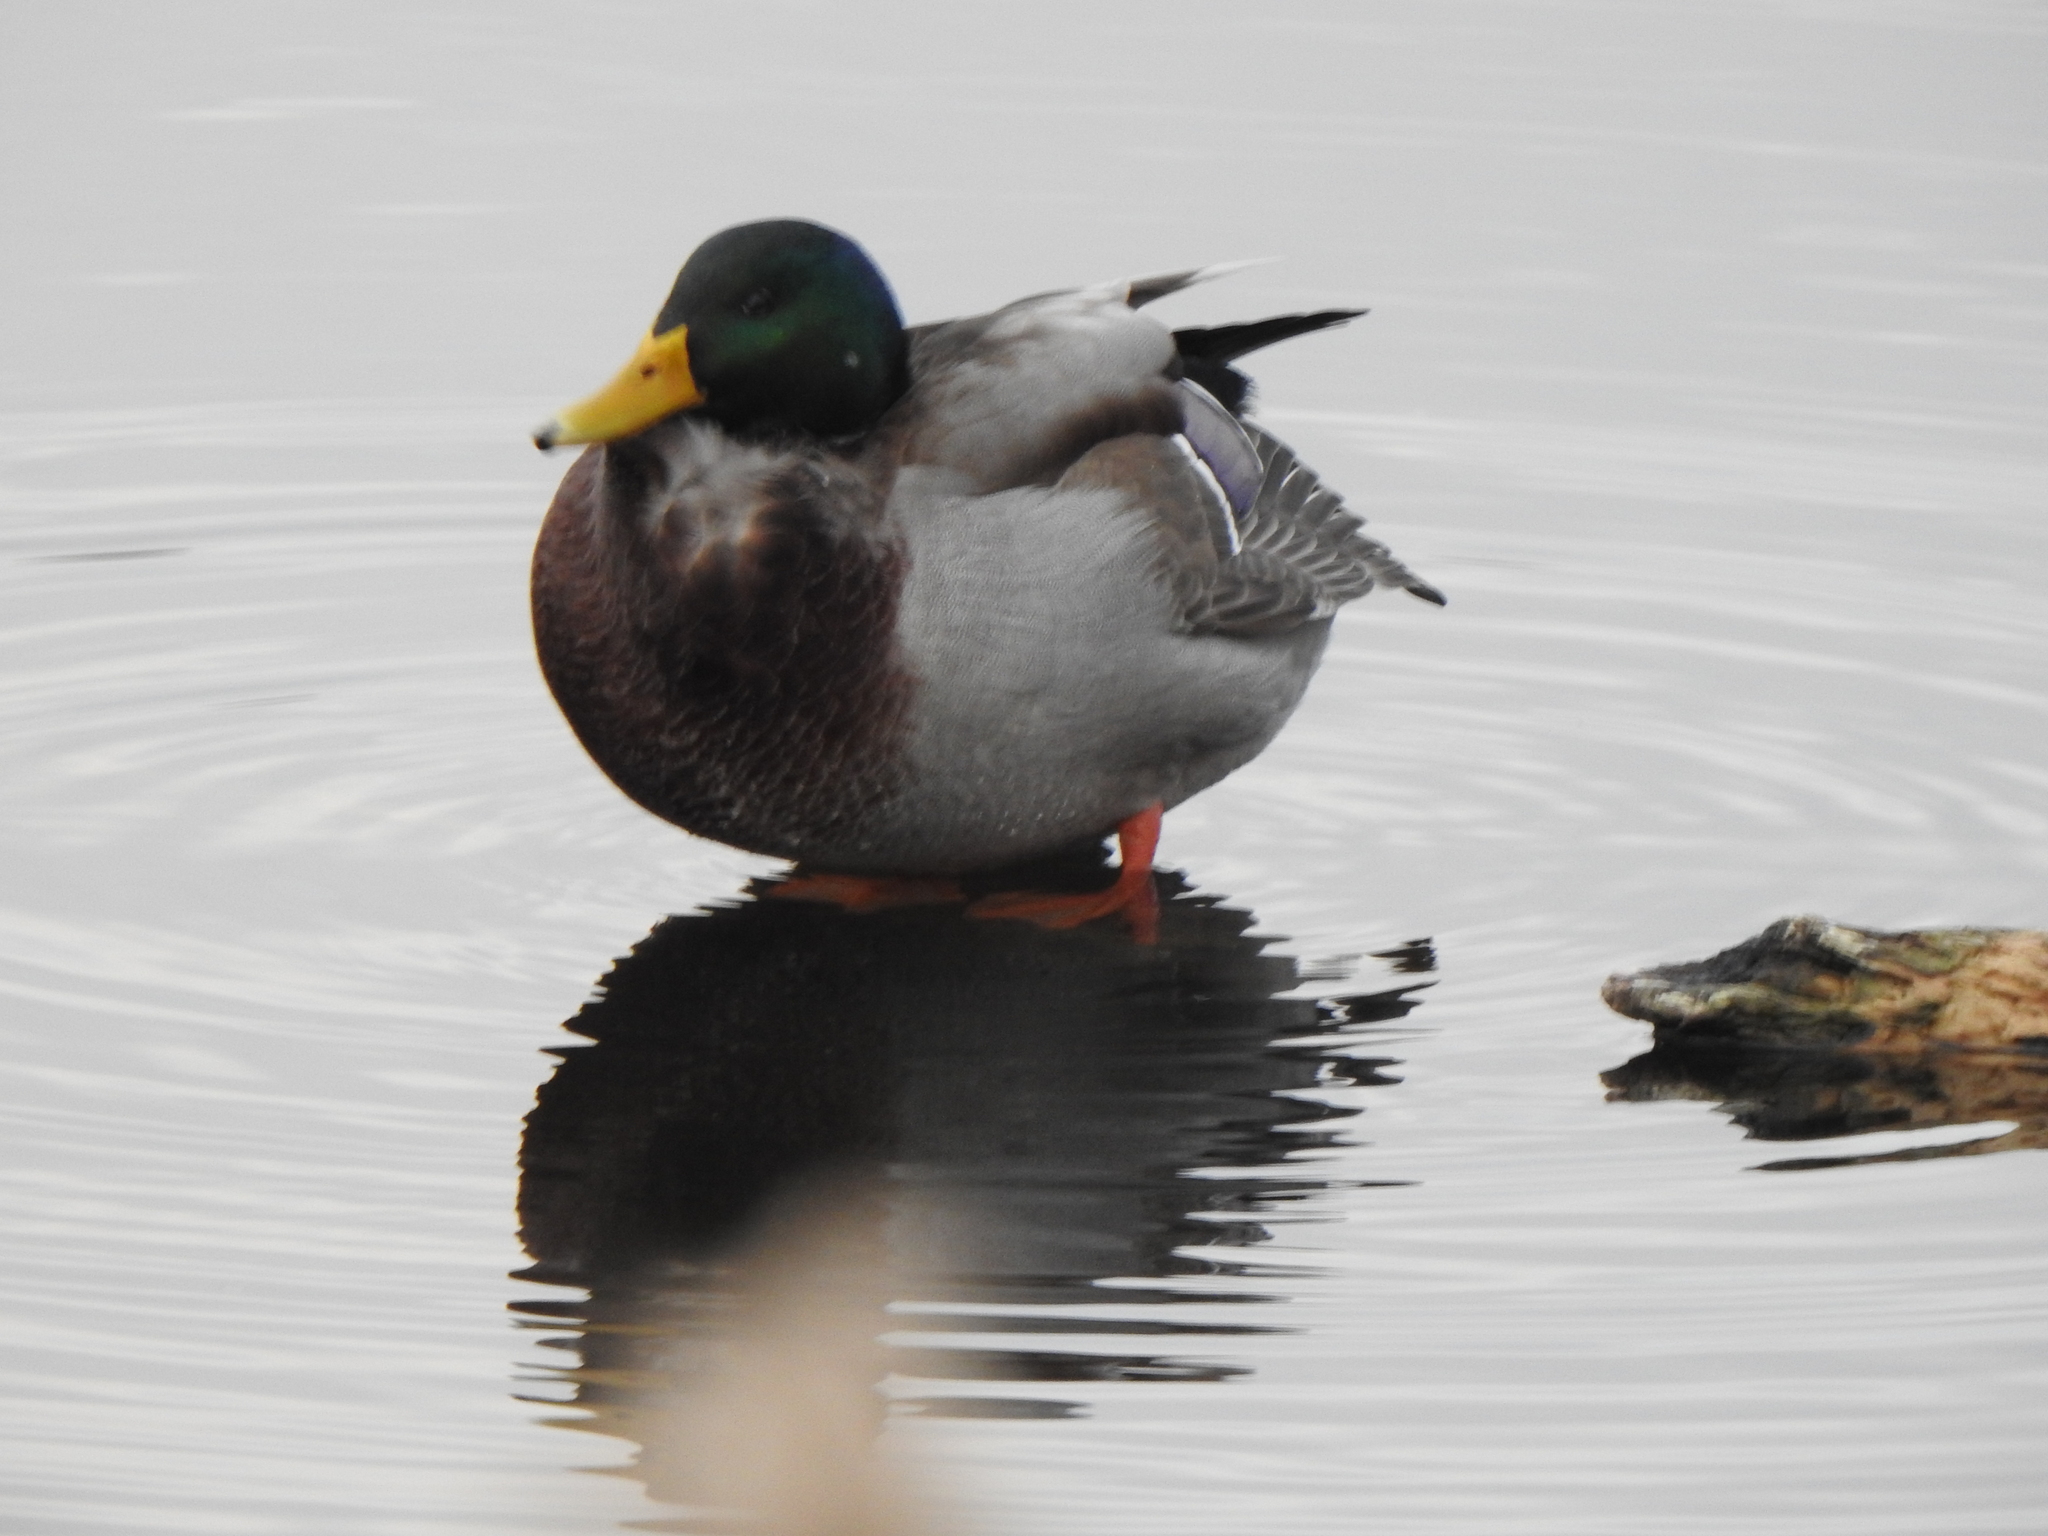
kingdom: Animalia
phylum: Chordata
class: Aves
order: Anseriformes
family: Anatidae
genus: Anas
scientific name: Anas platyrhynchos
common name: Mallard
